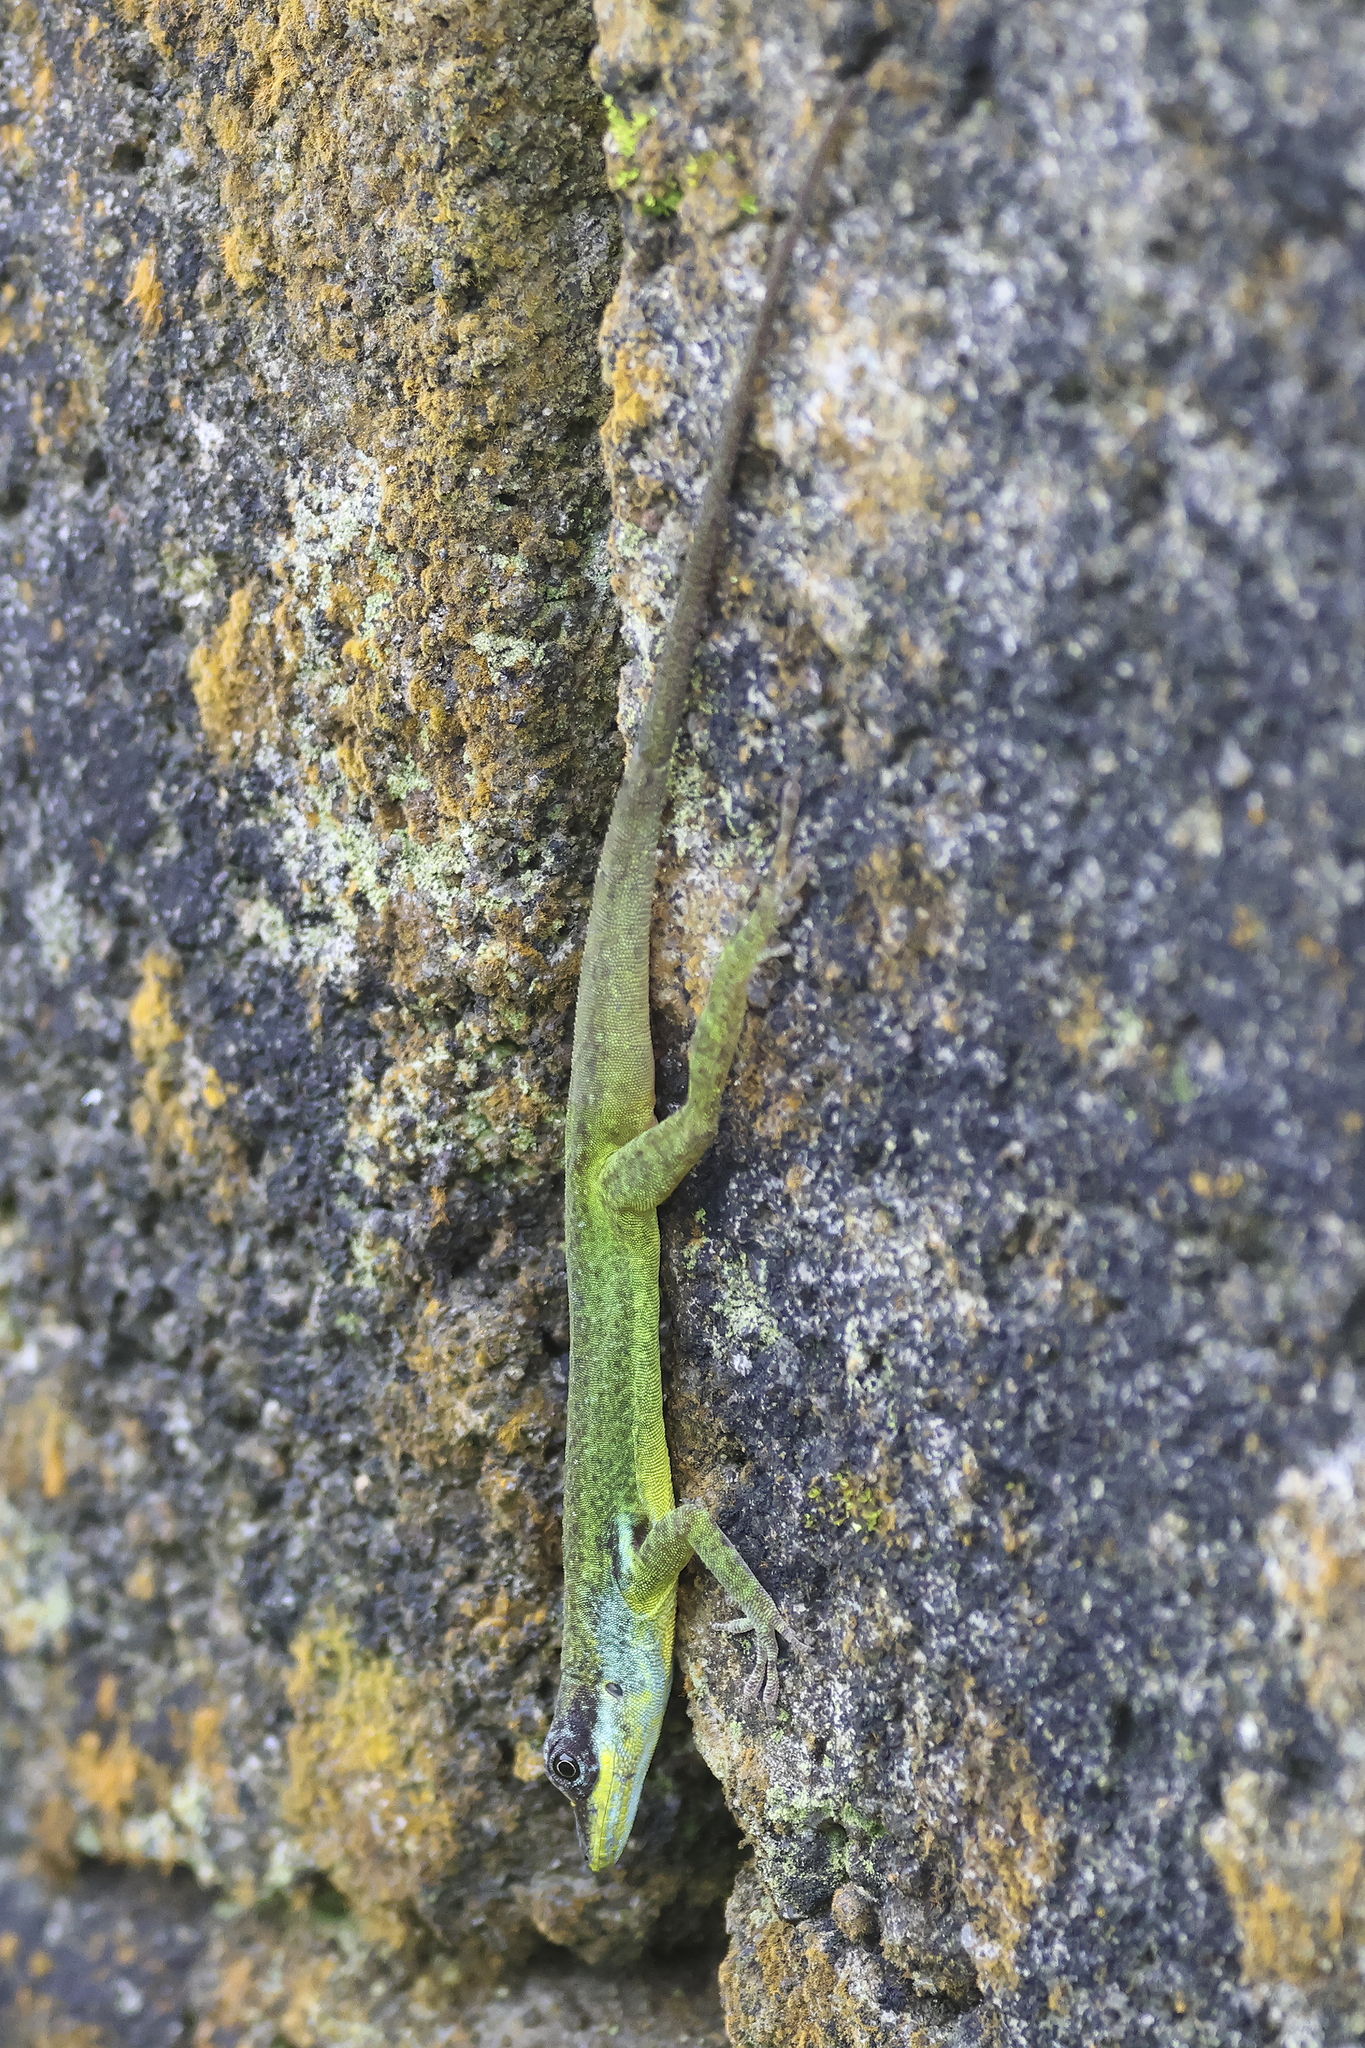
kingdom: Animalia
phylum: Chordata
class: Squamata
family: Dactyloidae
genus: Anolis
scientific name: Anolis trinitatis
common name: Saint vincent's bush anole
